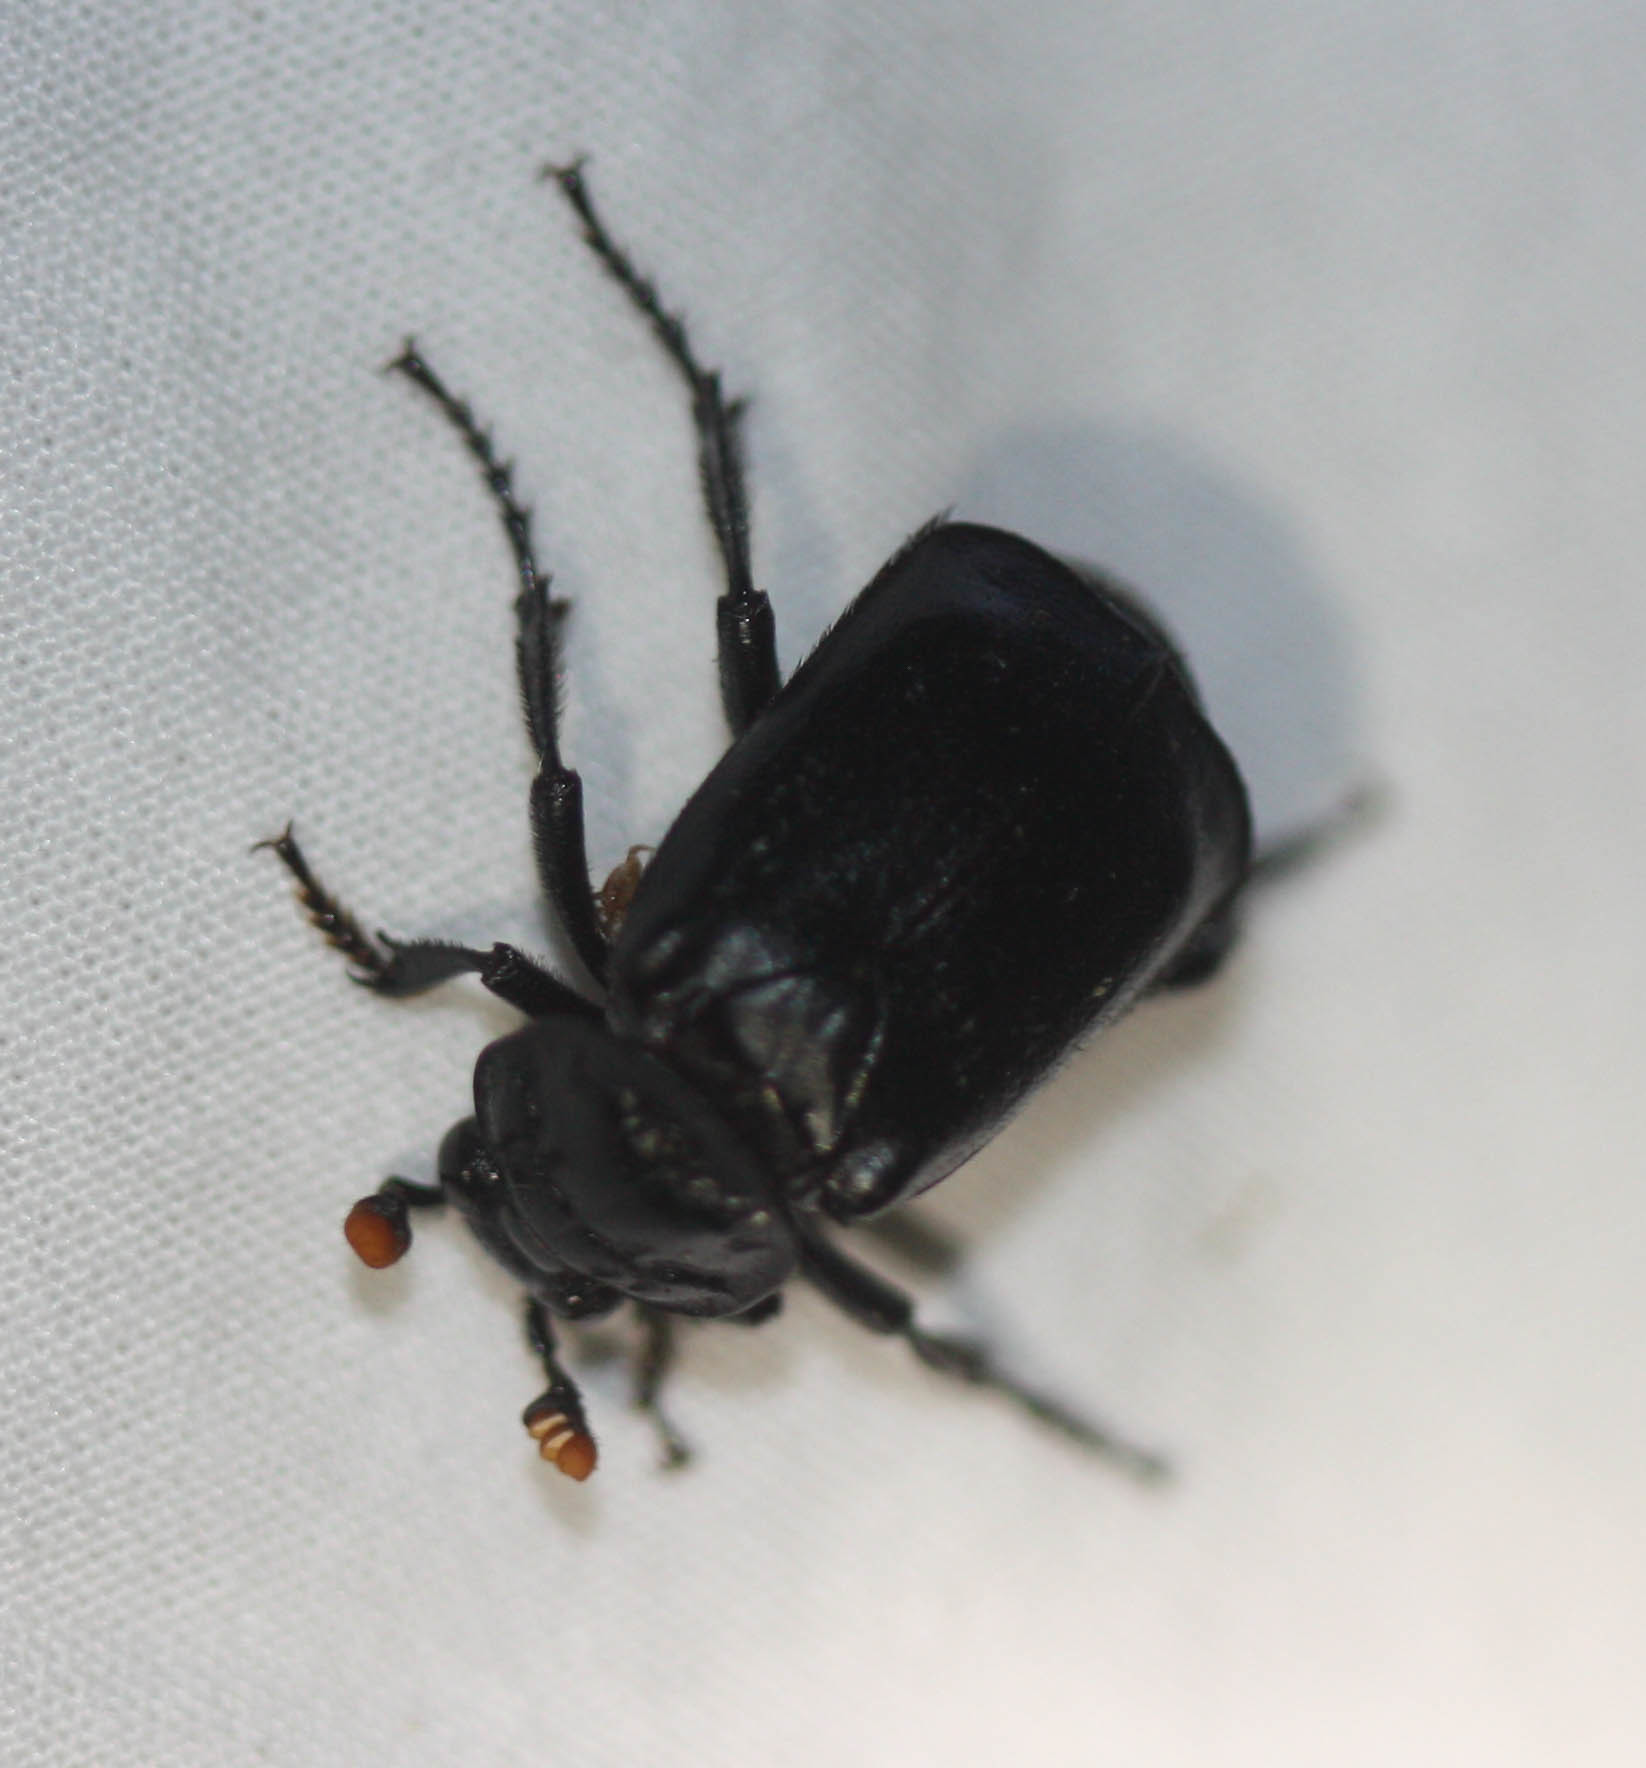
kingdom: Animalia
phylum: Arthropoda
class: Insecta
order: Coleoptera
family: Staphylinidae
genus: Nicrophorus
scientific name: Nicrophorus nigrita
